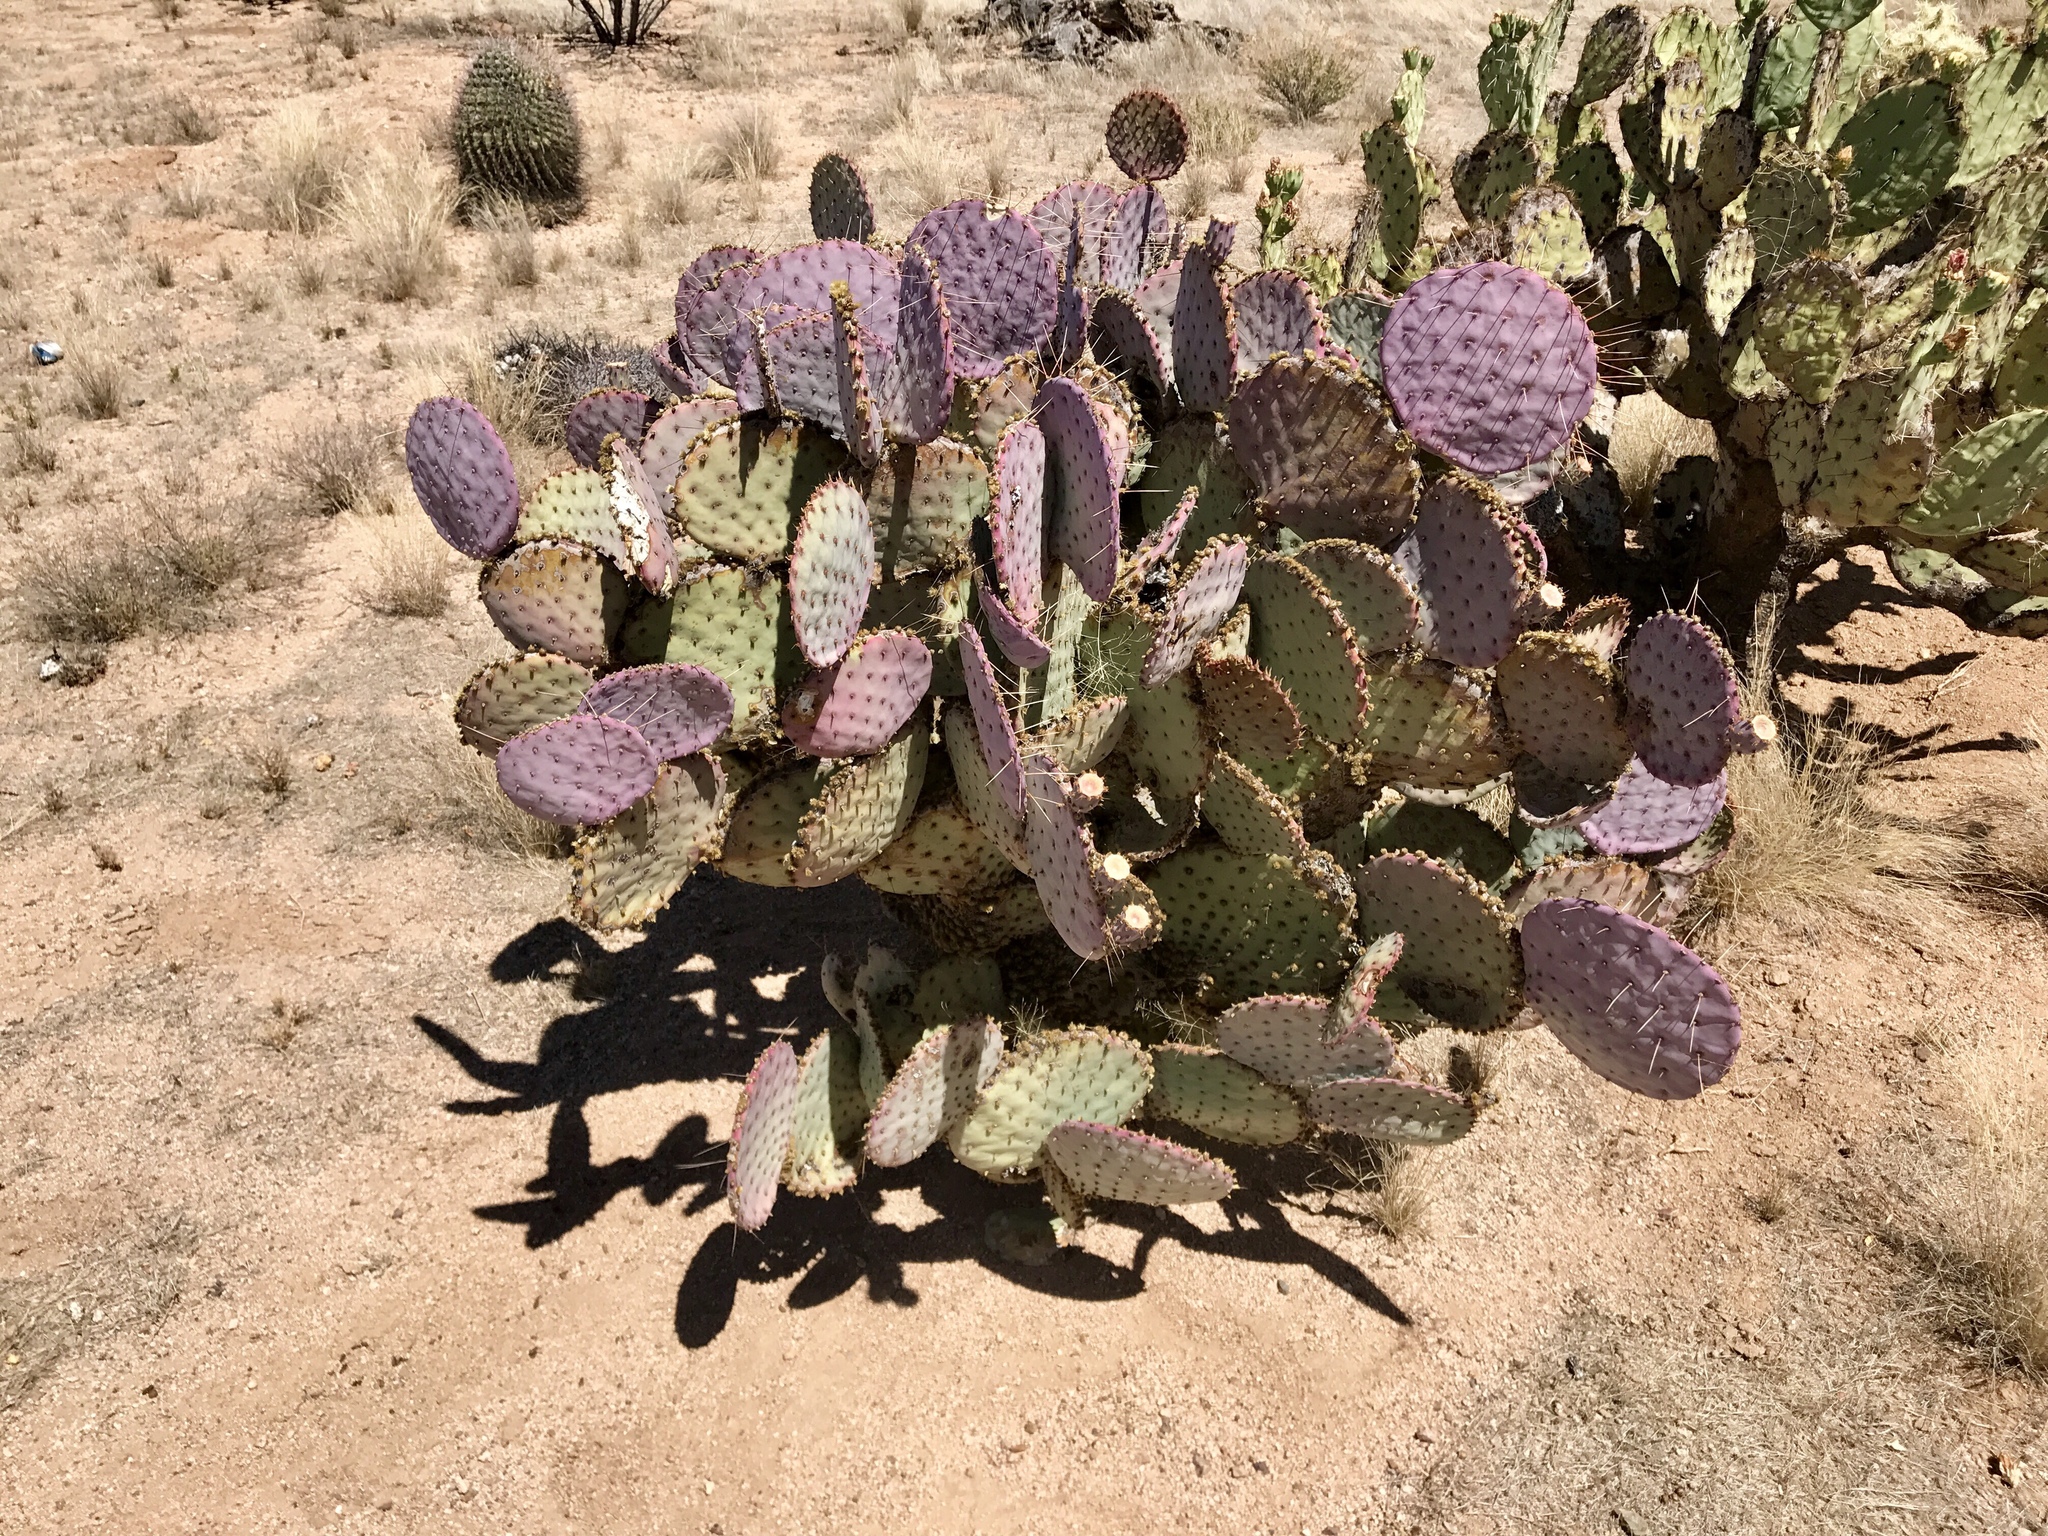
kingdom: Plantae
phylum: Tracheophyta
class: Magnoliopsida
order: Caryophyllales
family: Cactaceae
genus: Opuntia
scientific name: Opuntia gosseliniana
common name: Violet prickly-pear
